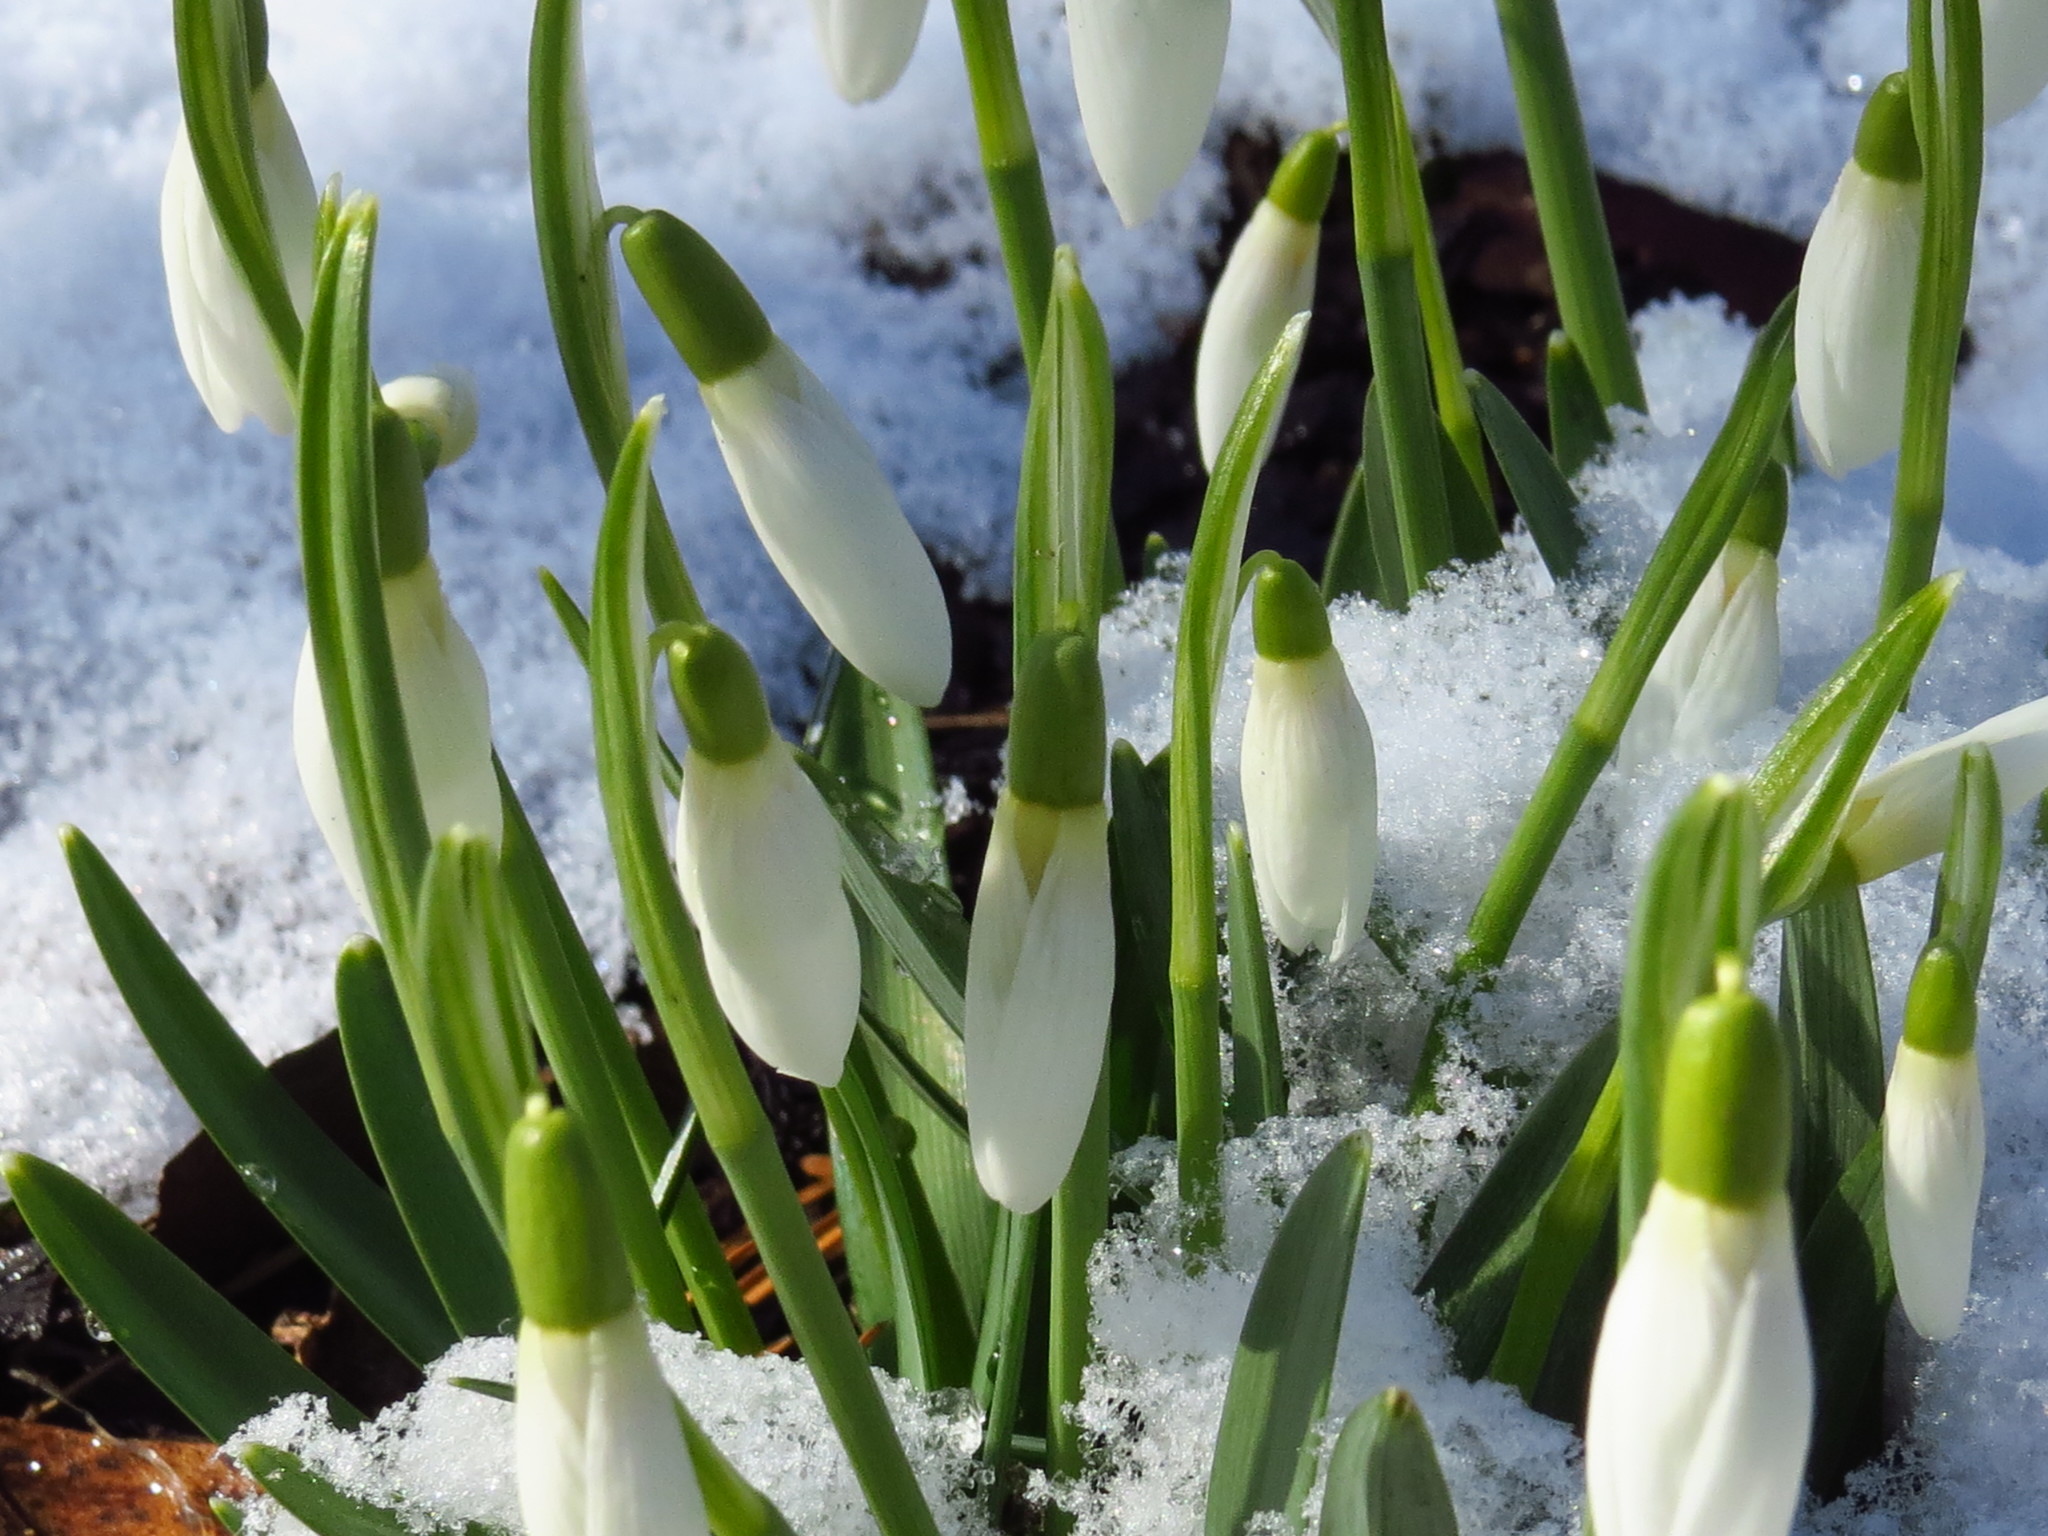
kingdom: Plantae
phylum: Tracheophyta
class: Liliopsida
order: Asparagales
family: Amaryllidaceae
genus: Galanthus
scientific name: Galanthus nivalis
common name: Snowdrop
